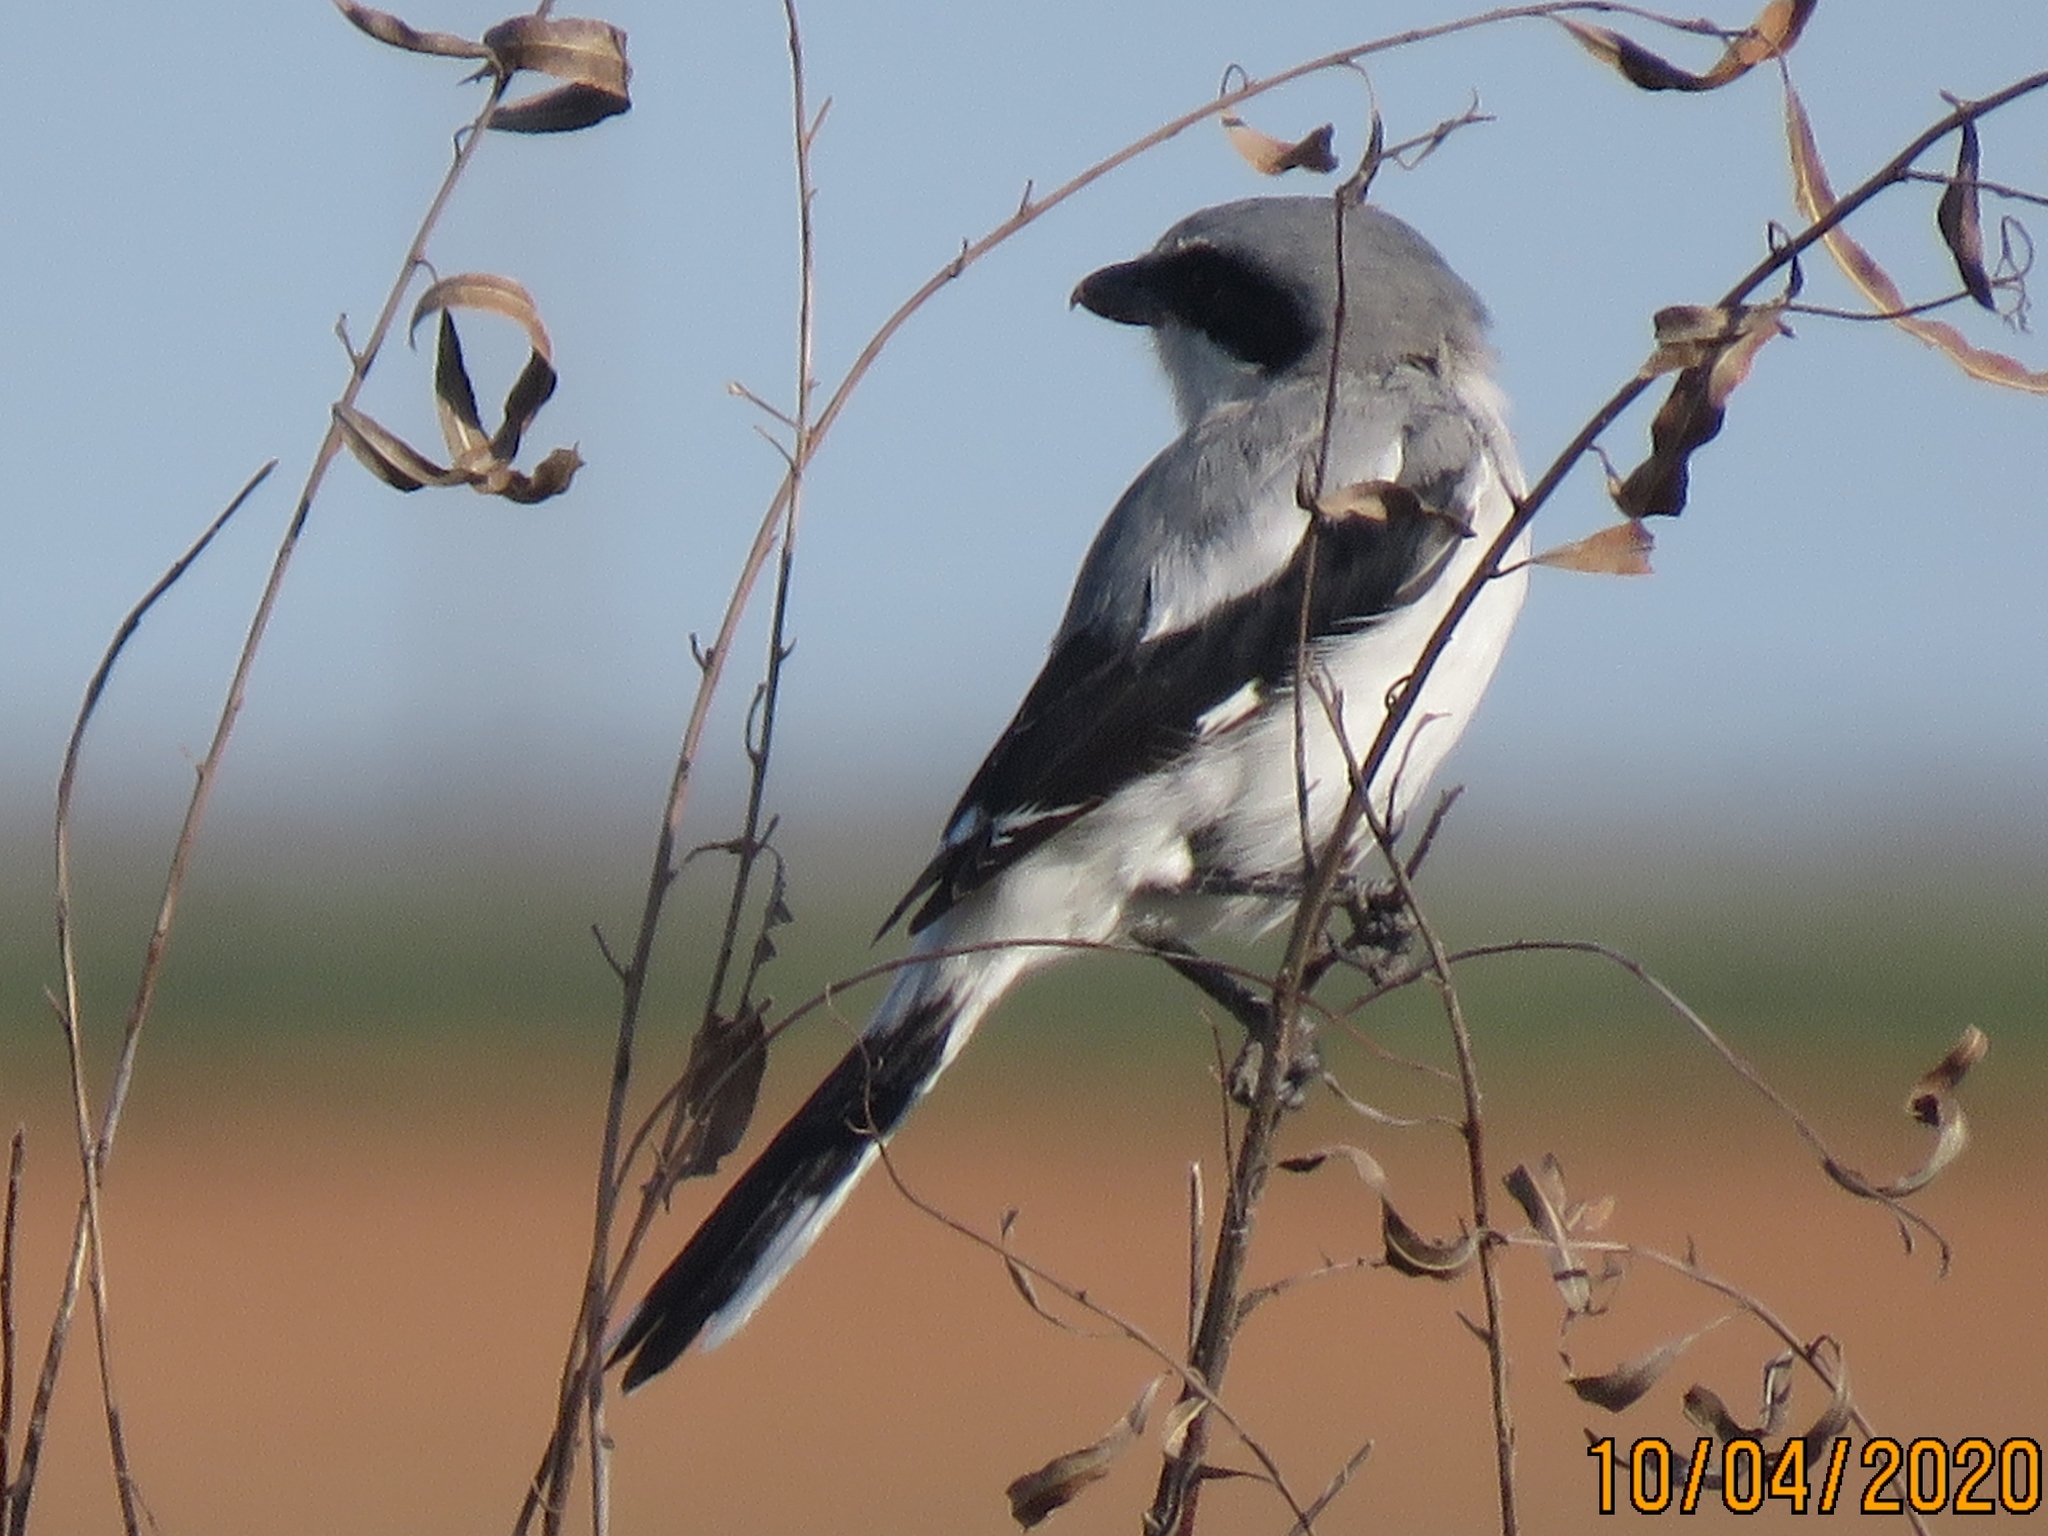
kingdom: Animalia
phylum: Chordata
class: Aves
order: Passeriformes
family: Laniidae
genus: Lanius
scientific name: Lanius ludovicianus
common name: Loggerhead shrike
